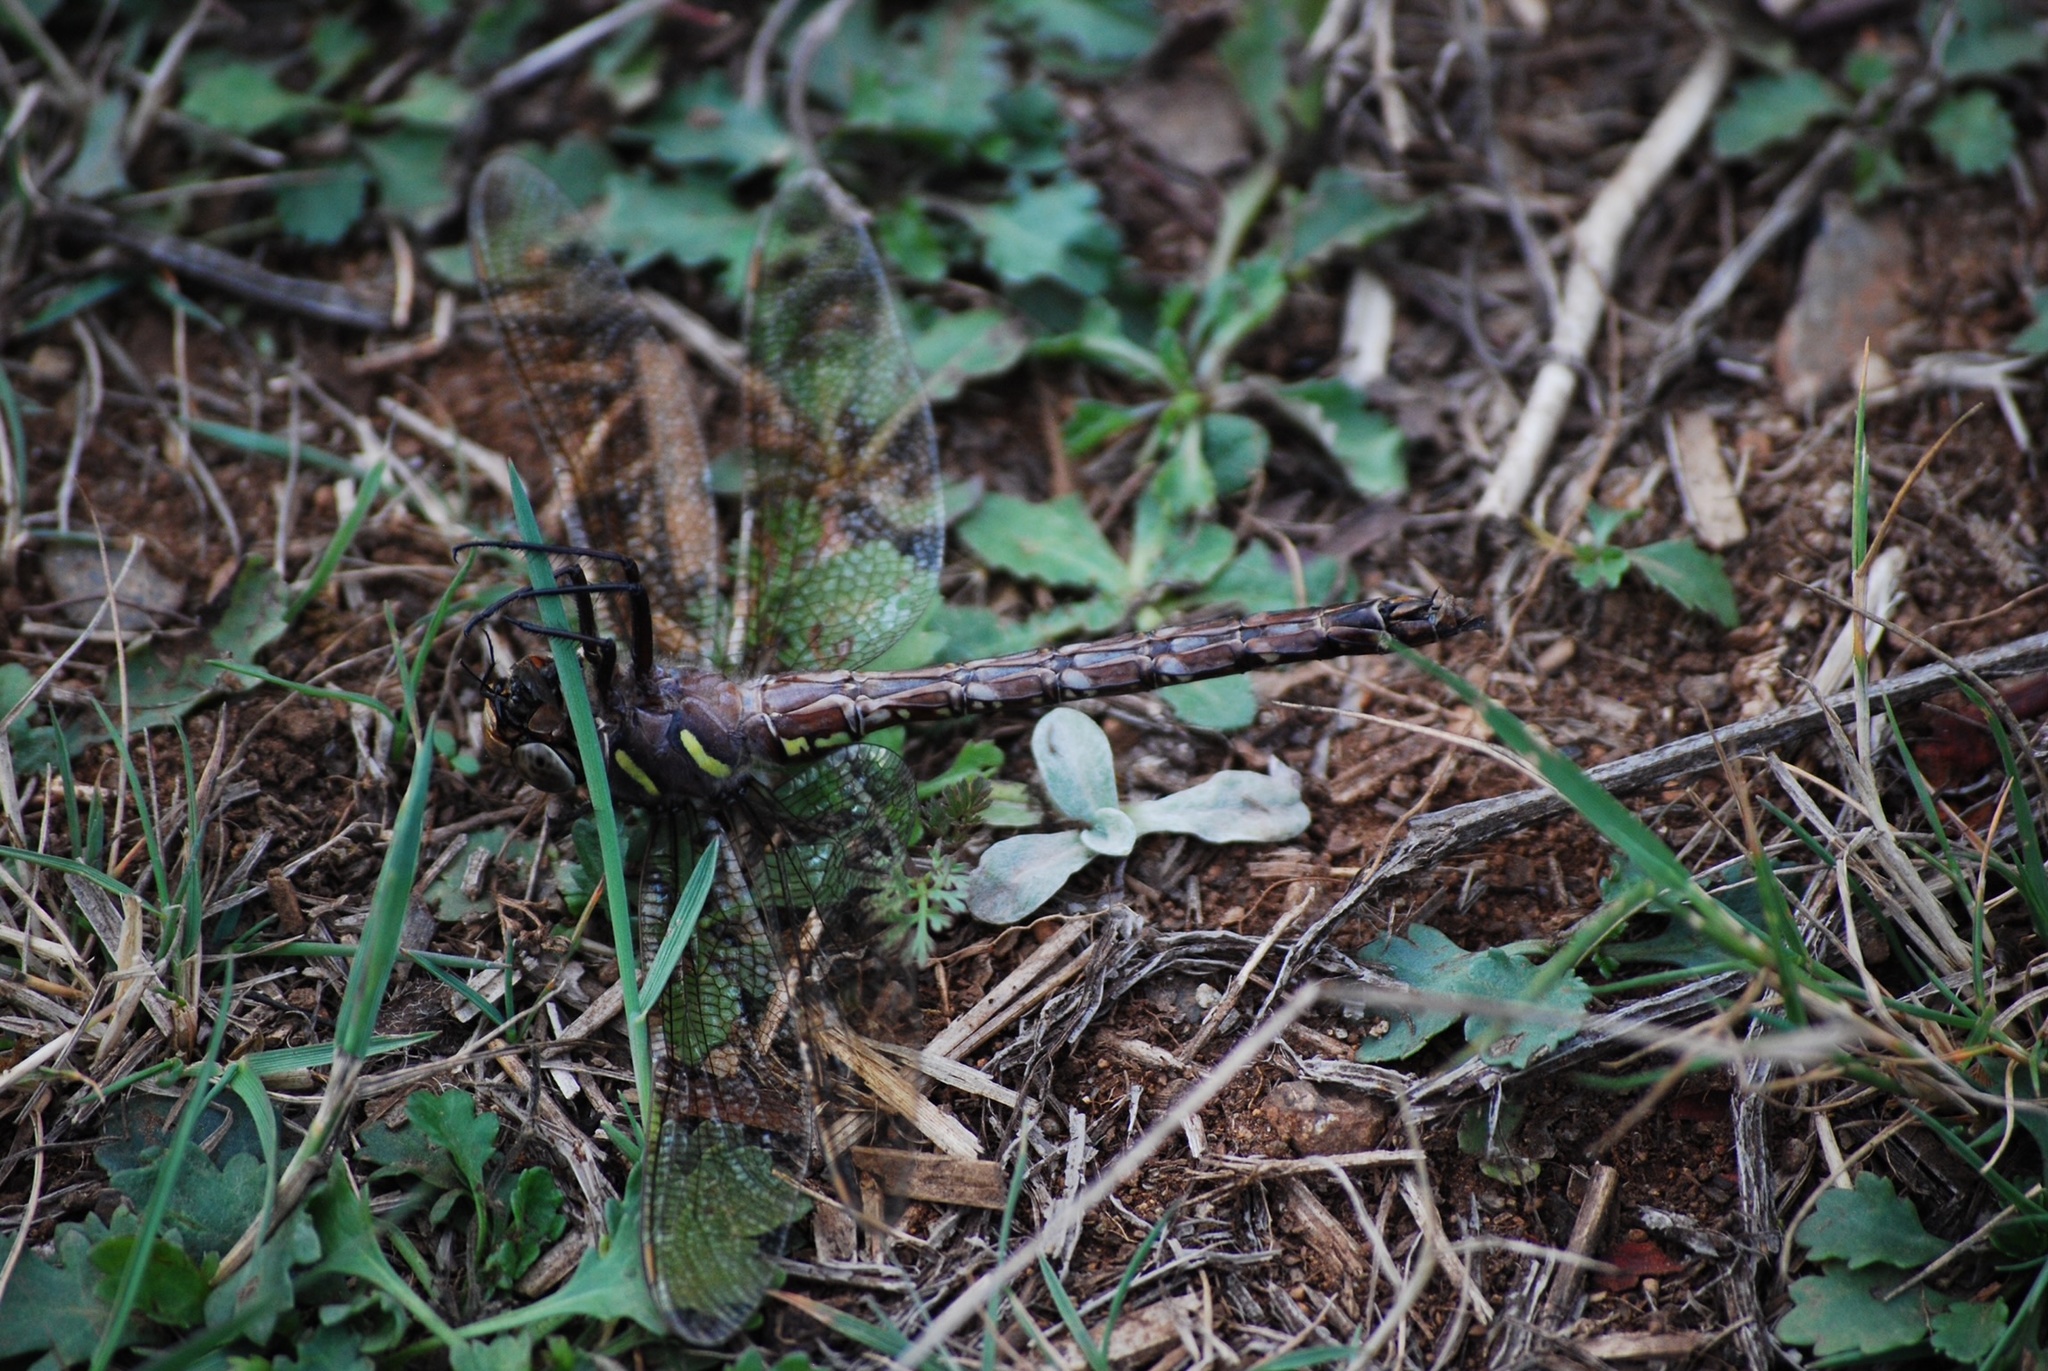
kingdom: Animalia
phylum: Arthropoda
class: Insecta
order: Odonata
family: Aeshnidae
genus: Aeshna
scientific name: Aeshna umbrosa
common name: Shadow darner
